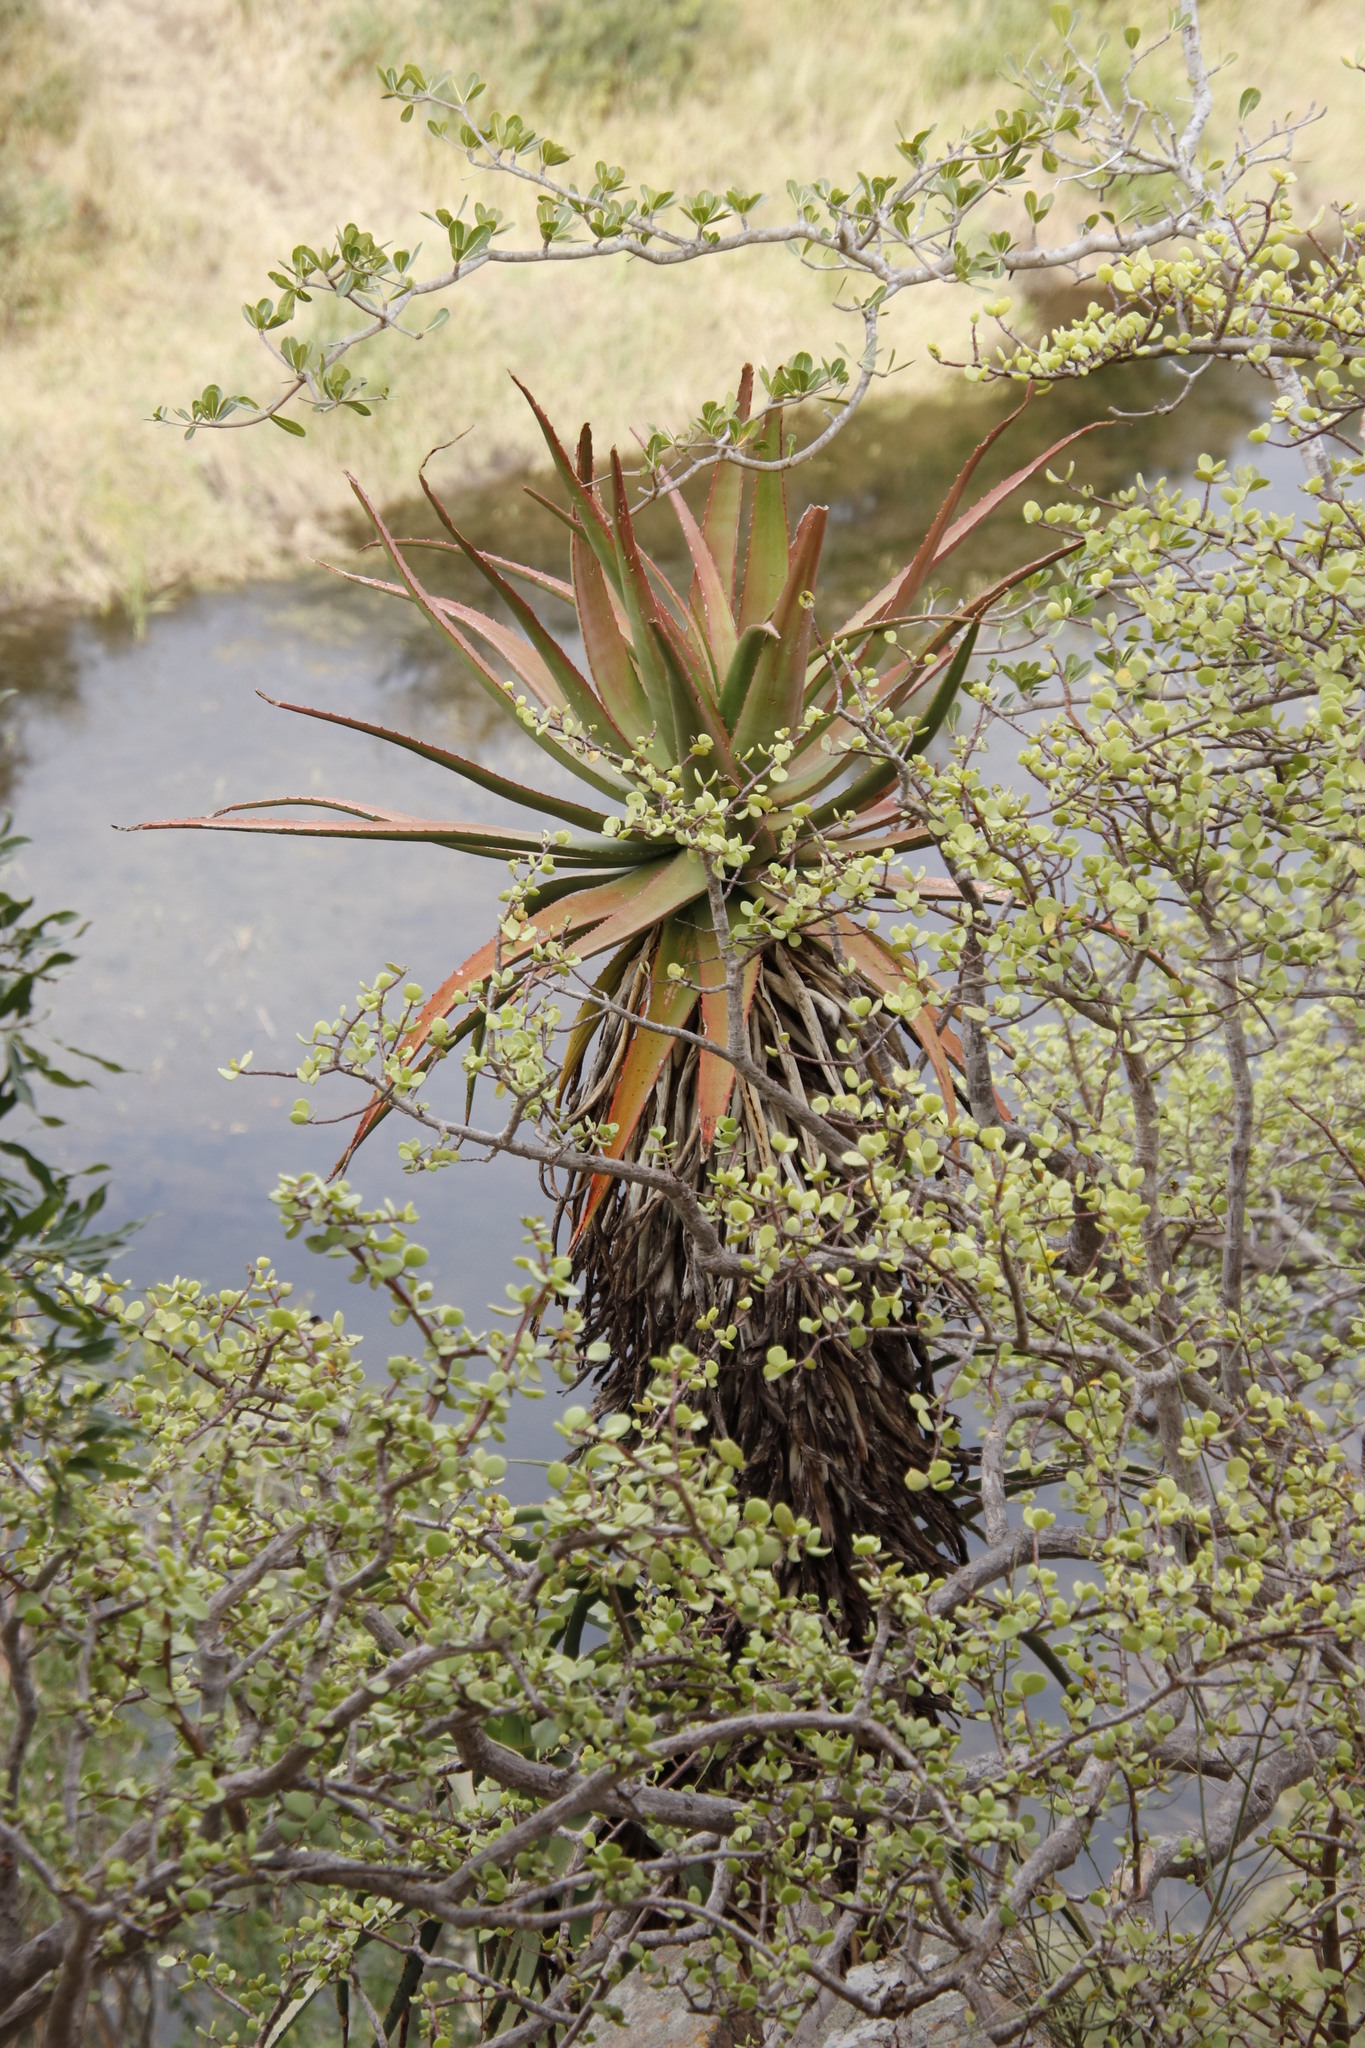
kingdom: Plantae
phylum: Tracheophyta
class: Liliopsida
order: Asparagales
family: Asphodelaceae
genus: Aloe
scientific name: Aloe spicata
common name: Gazaland aloe
